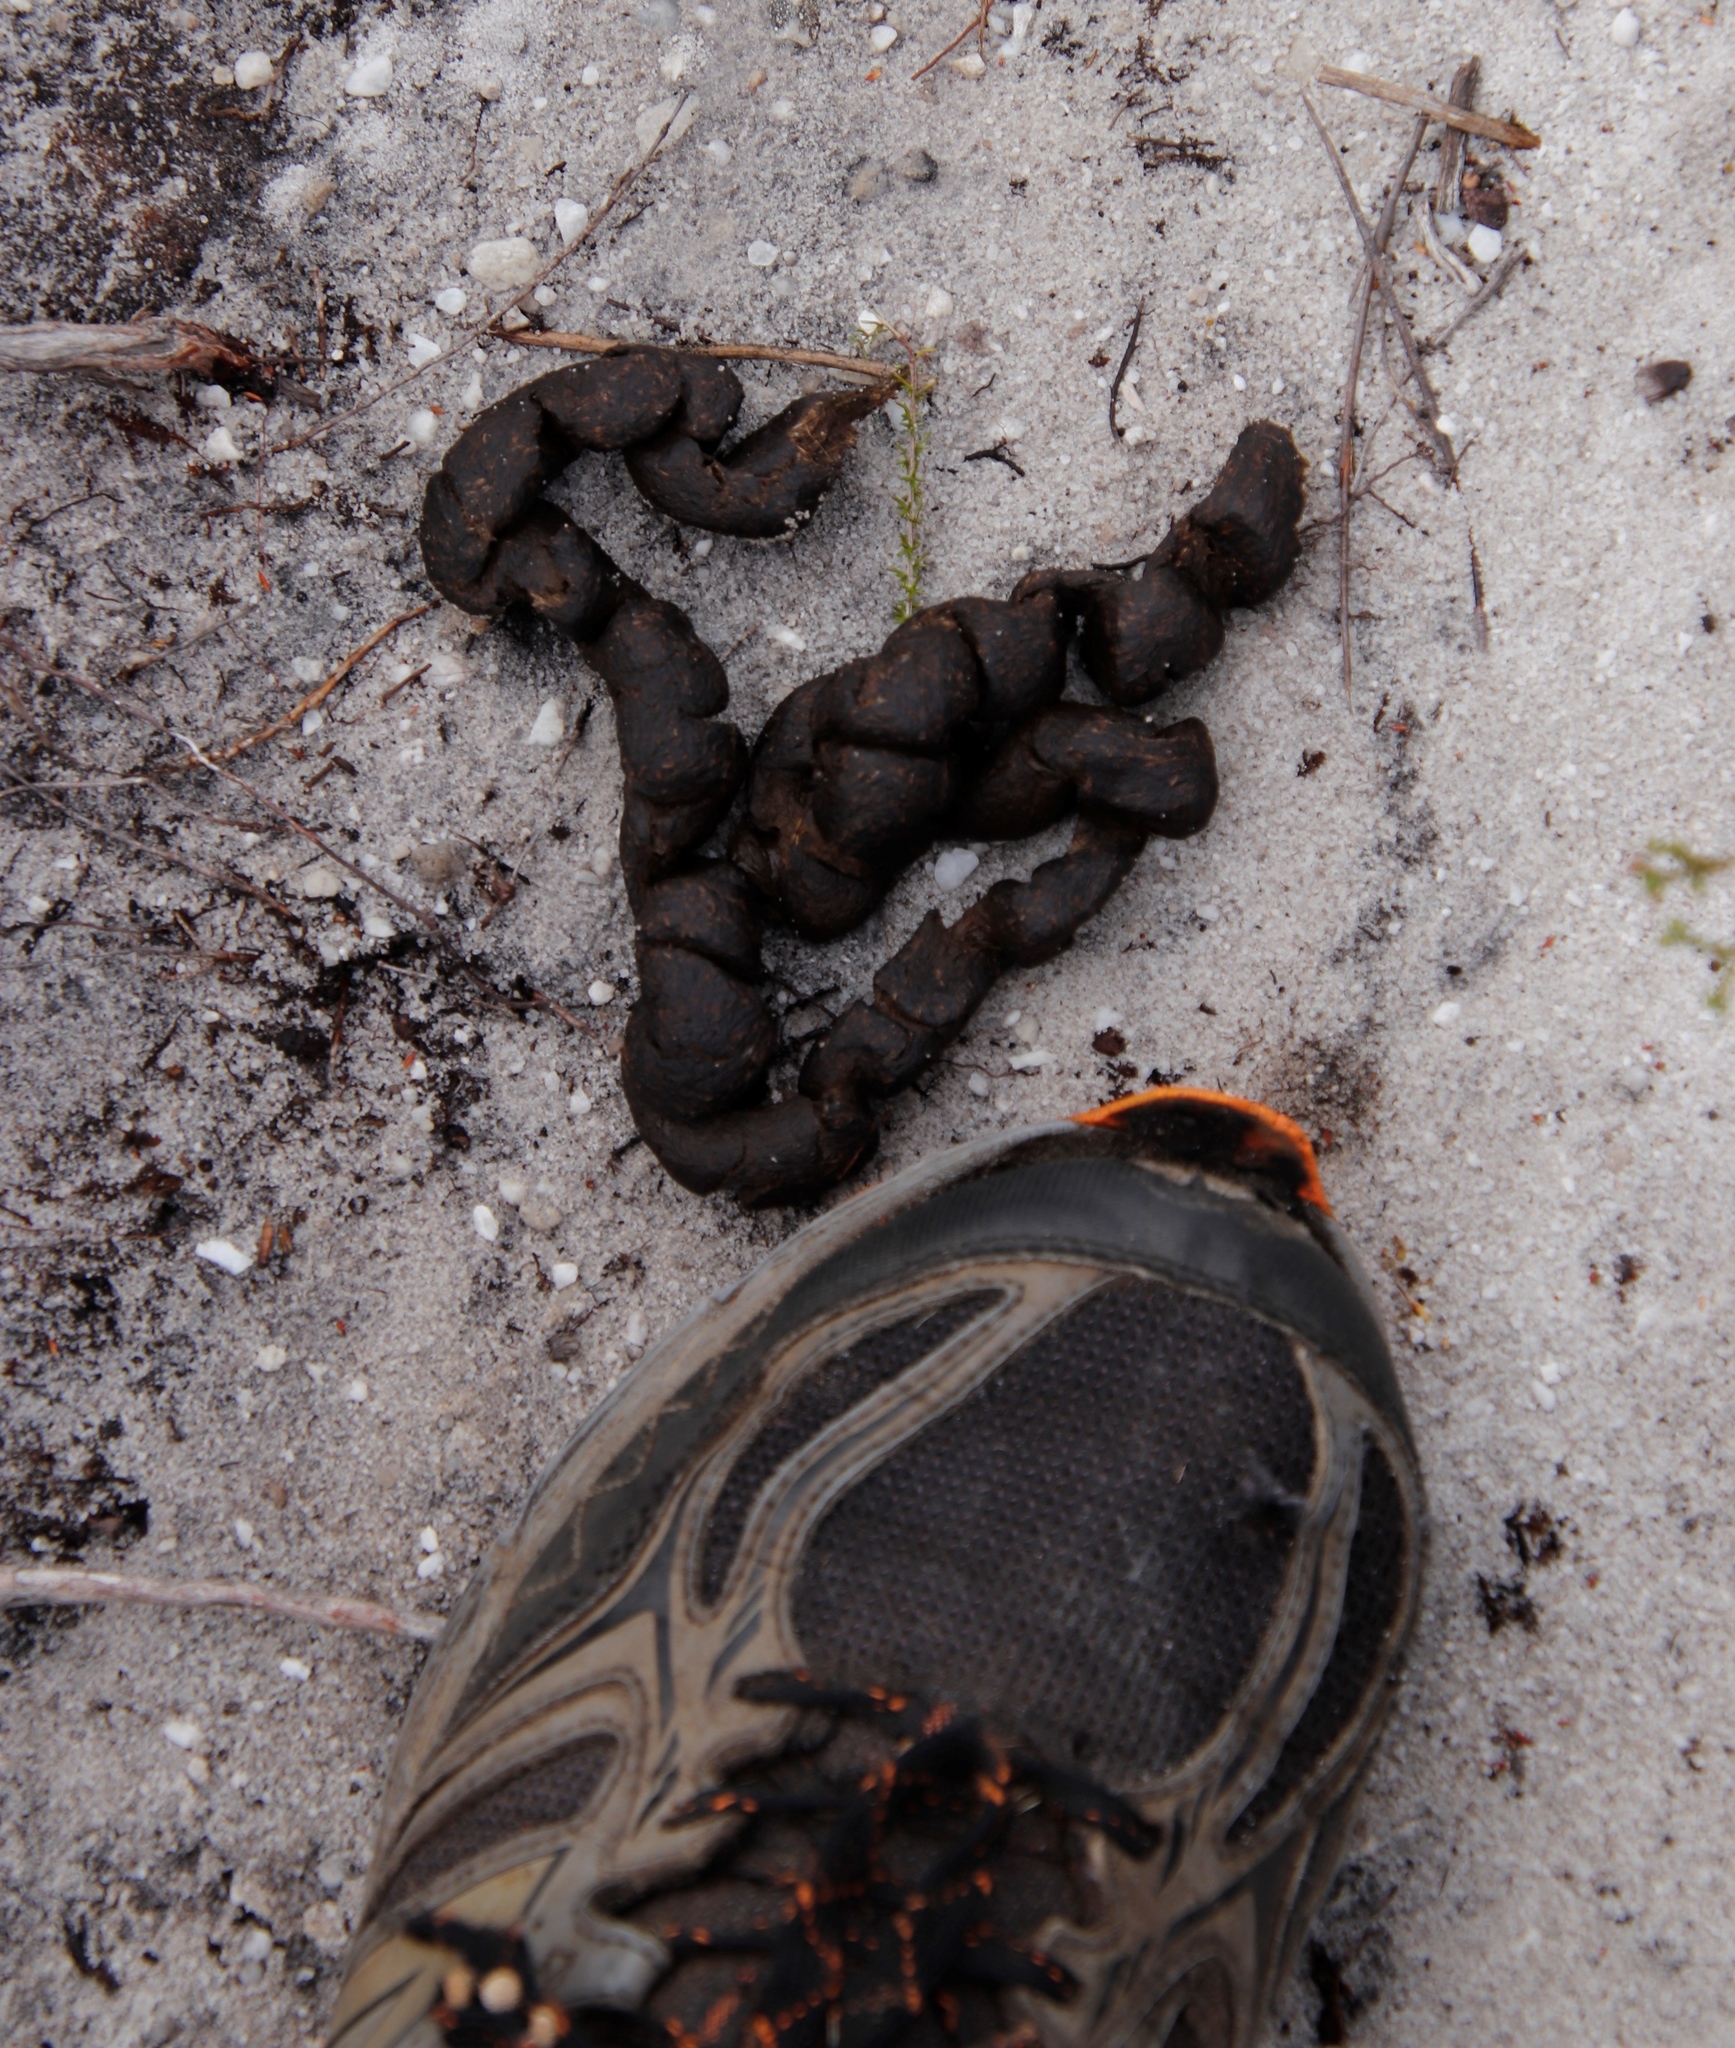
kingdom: Animalia
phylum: Chordata
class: Mammalia
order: Rodentia
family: Hystricidae
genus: Hystrix
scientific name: Hystrix africaeaustralis
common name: Cape porcupine
